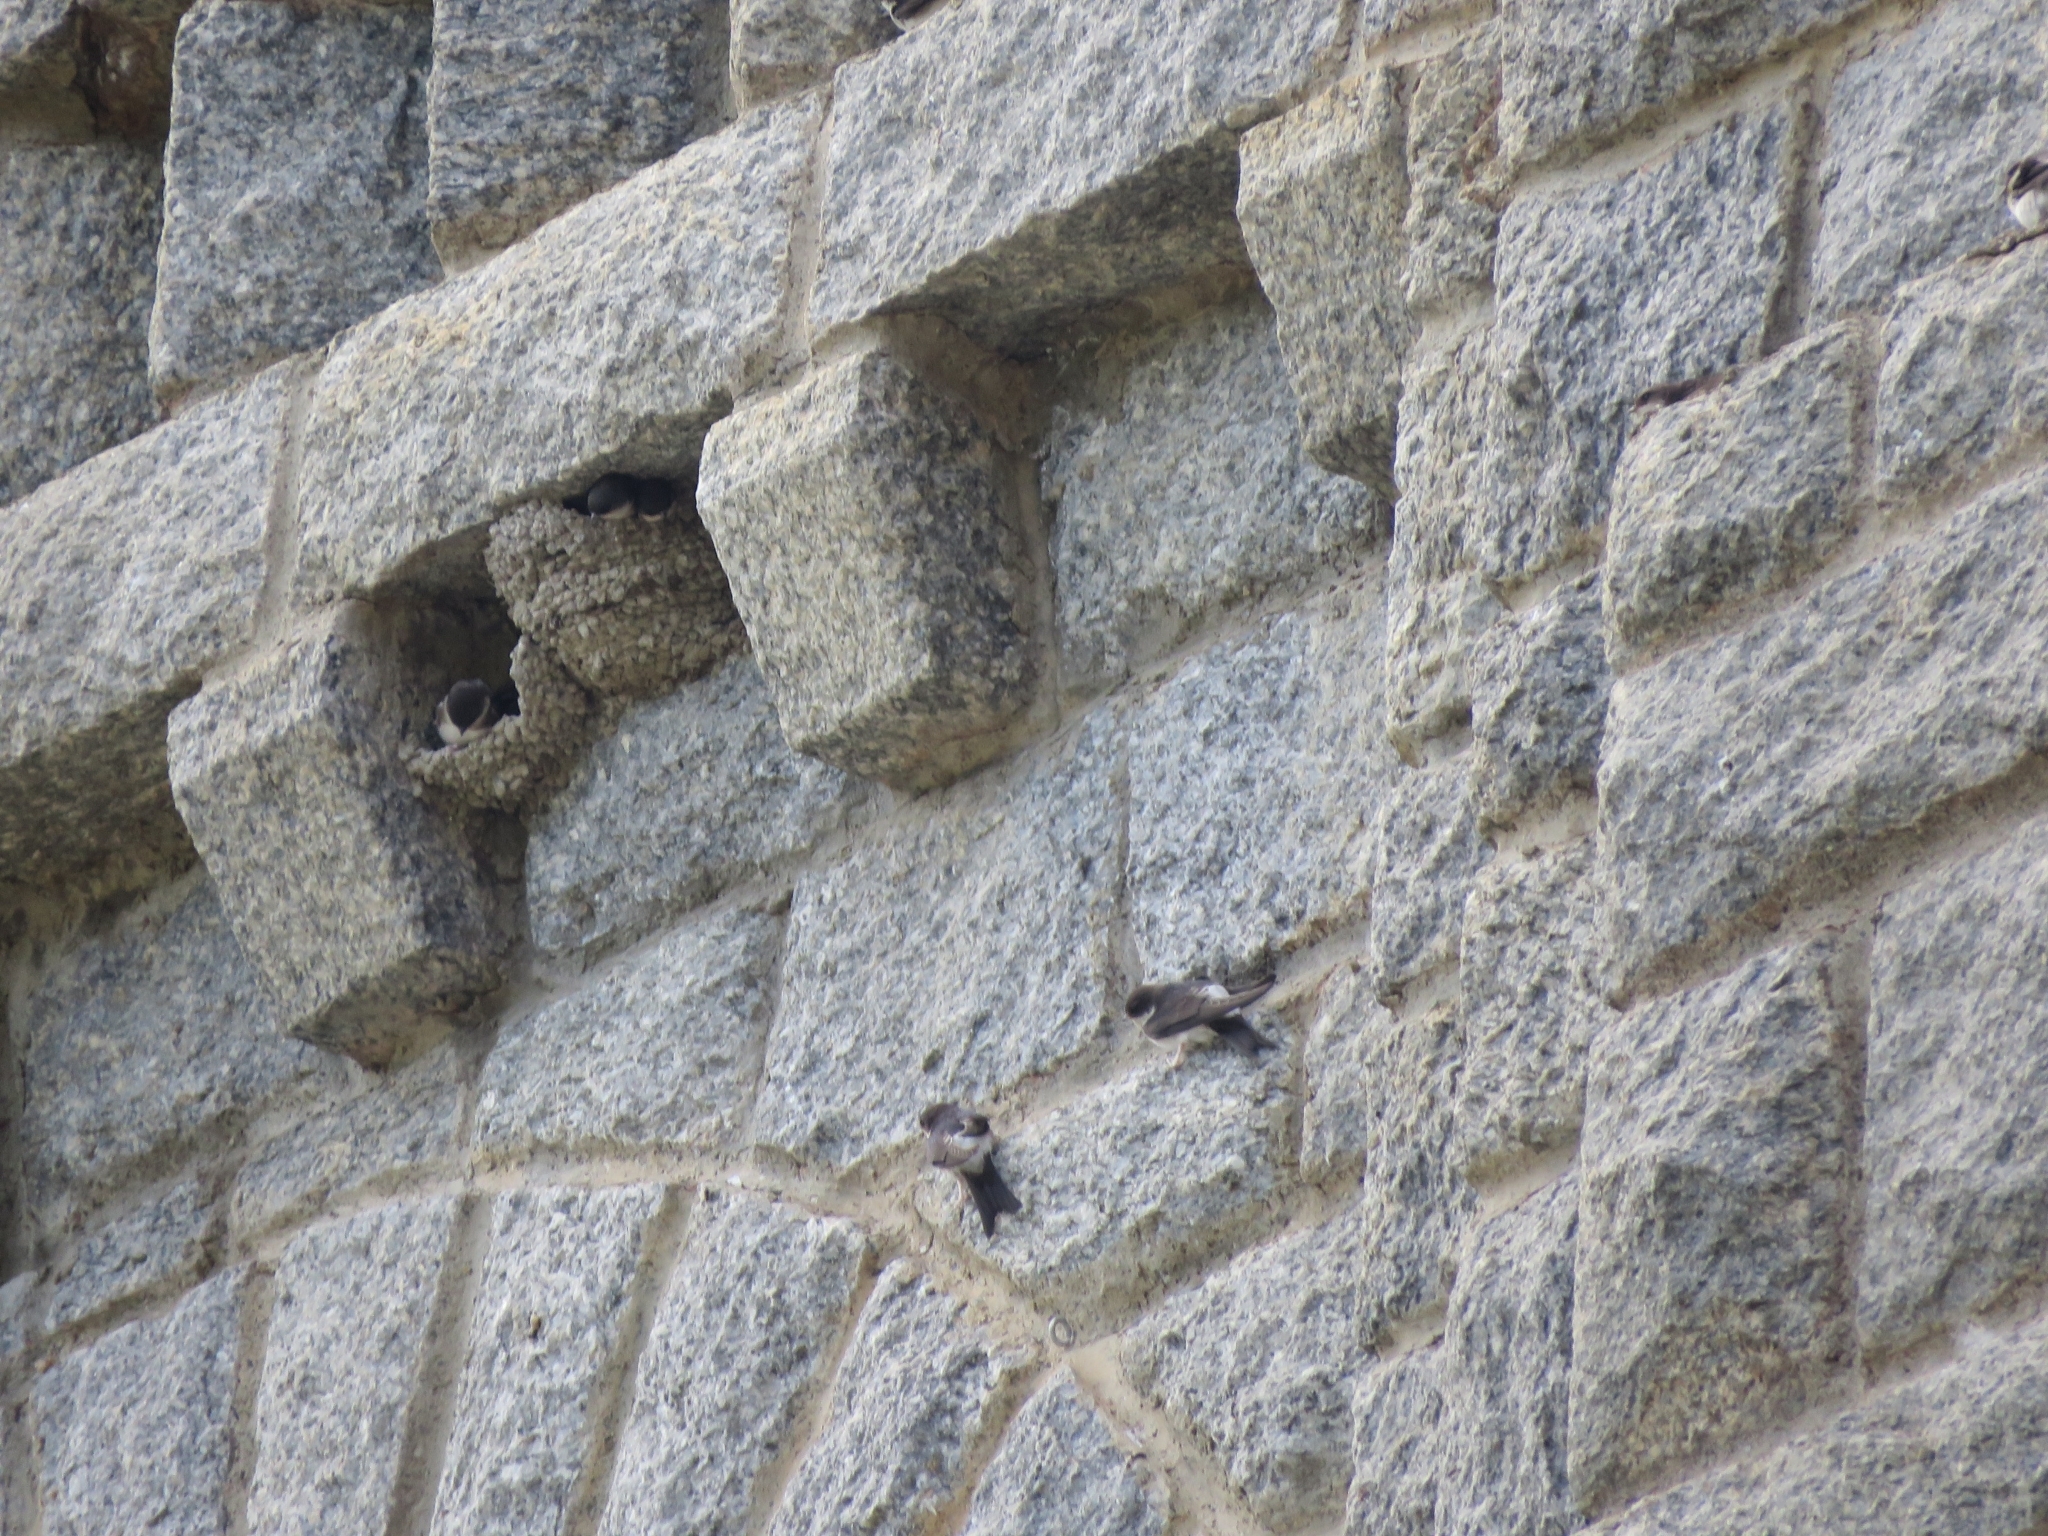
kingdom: Animalia
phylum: Chordata
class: Aves
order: Passeriformes
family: Hirundinidae
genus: Delichon
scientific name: Delichon urbicum
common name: Common house martin
